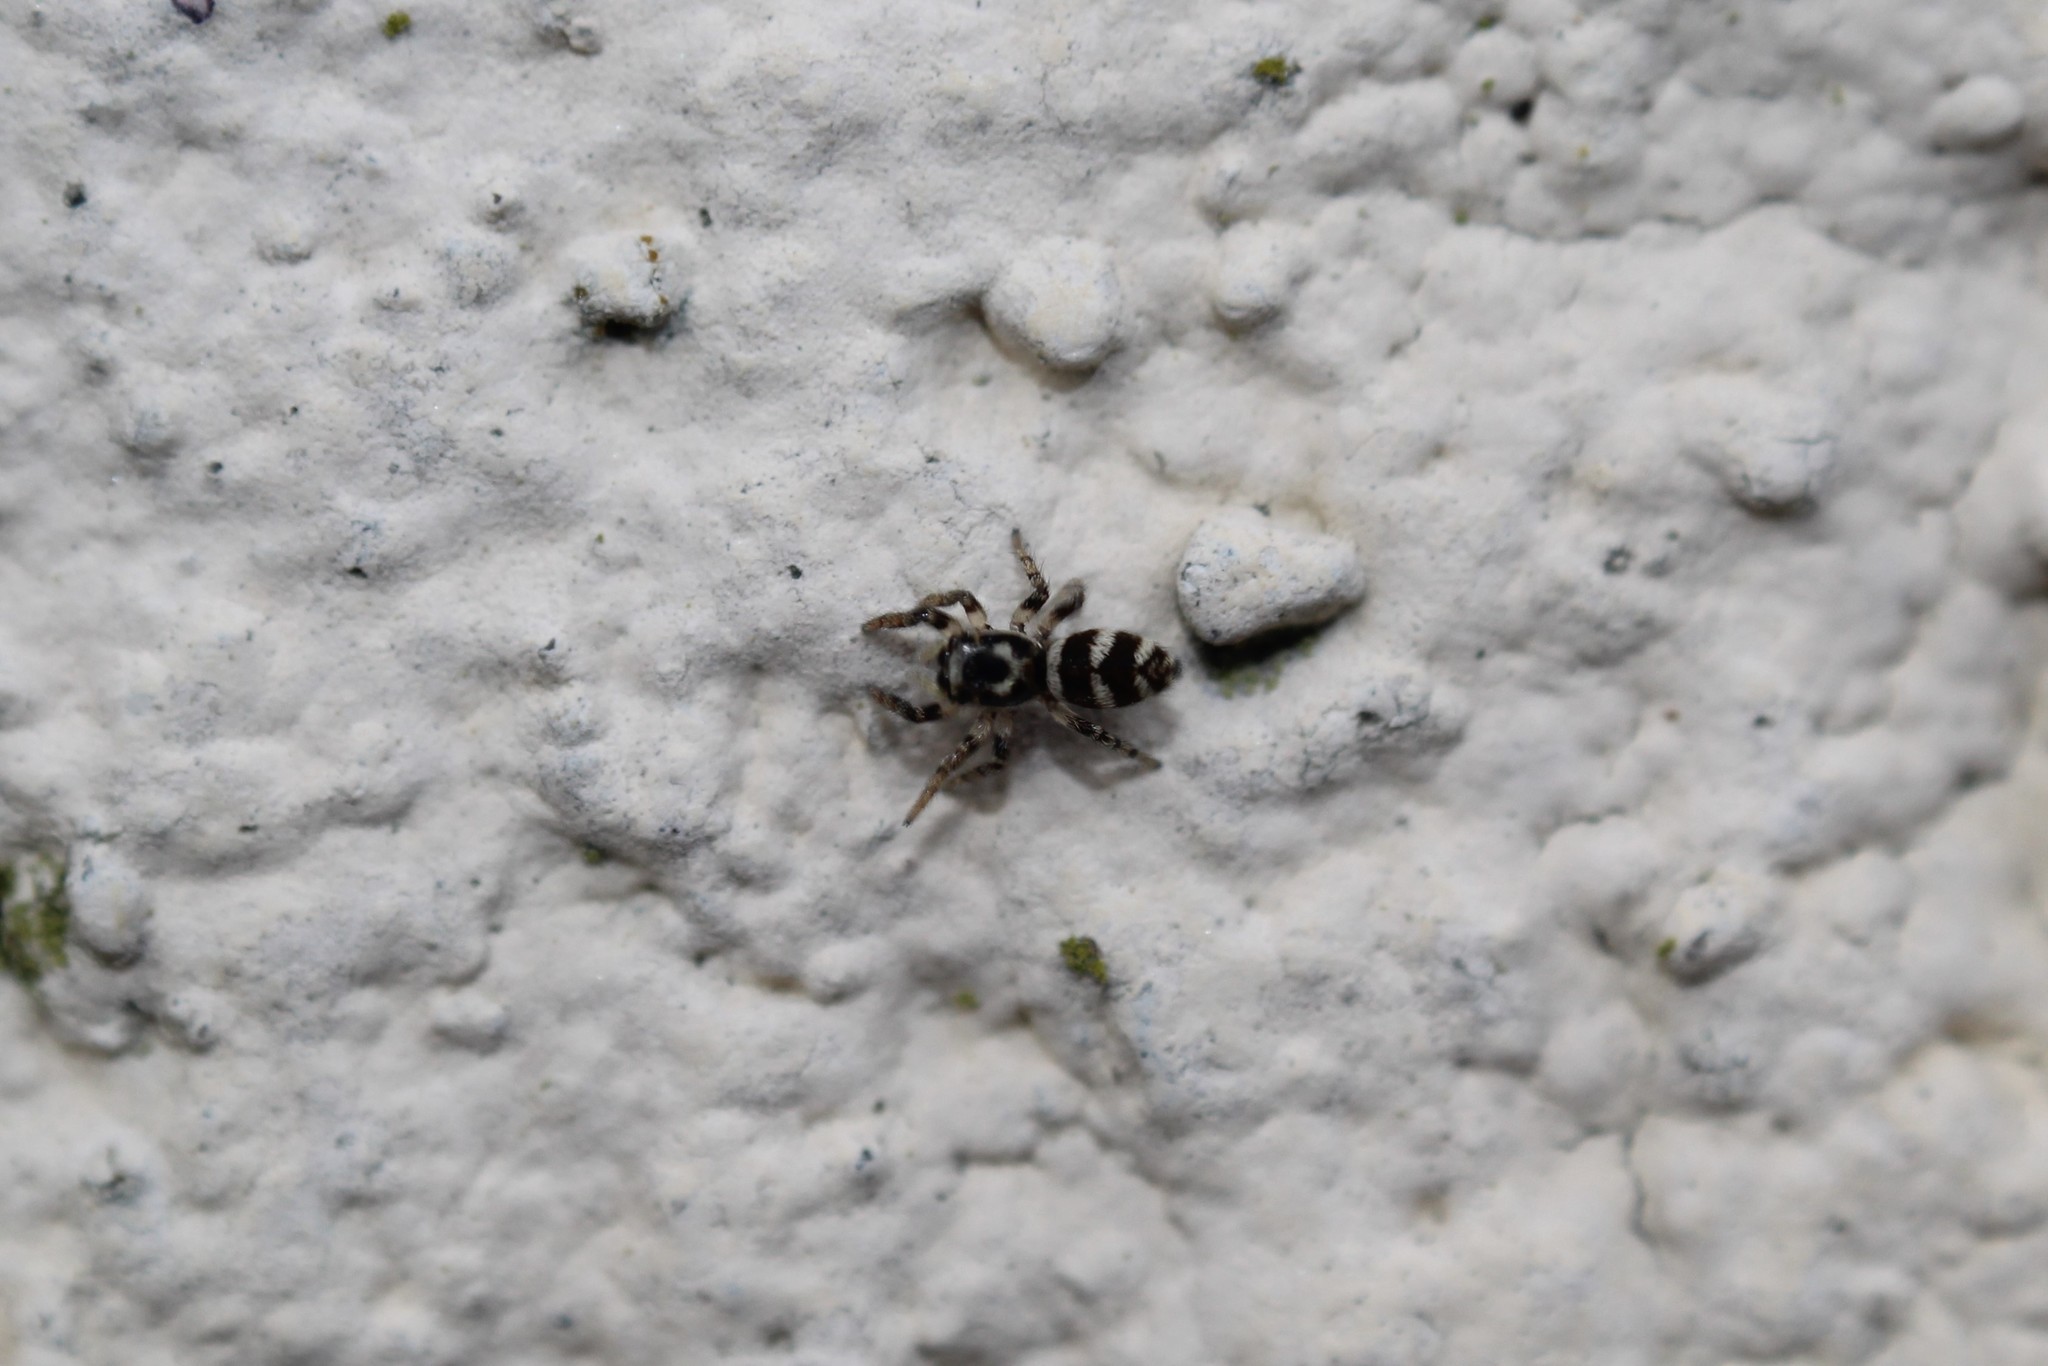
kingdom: Animalia
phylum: Arthropoda
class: Arachnida
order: Araneae
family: Salticidae
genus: Salticus
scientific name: Salticus scenicus
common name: Zebra jumper
